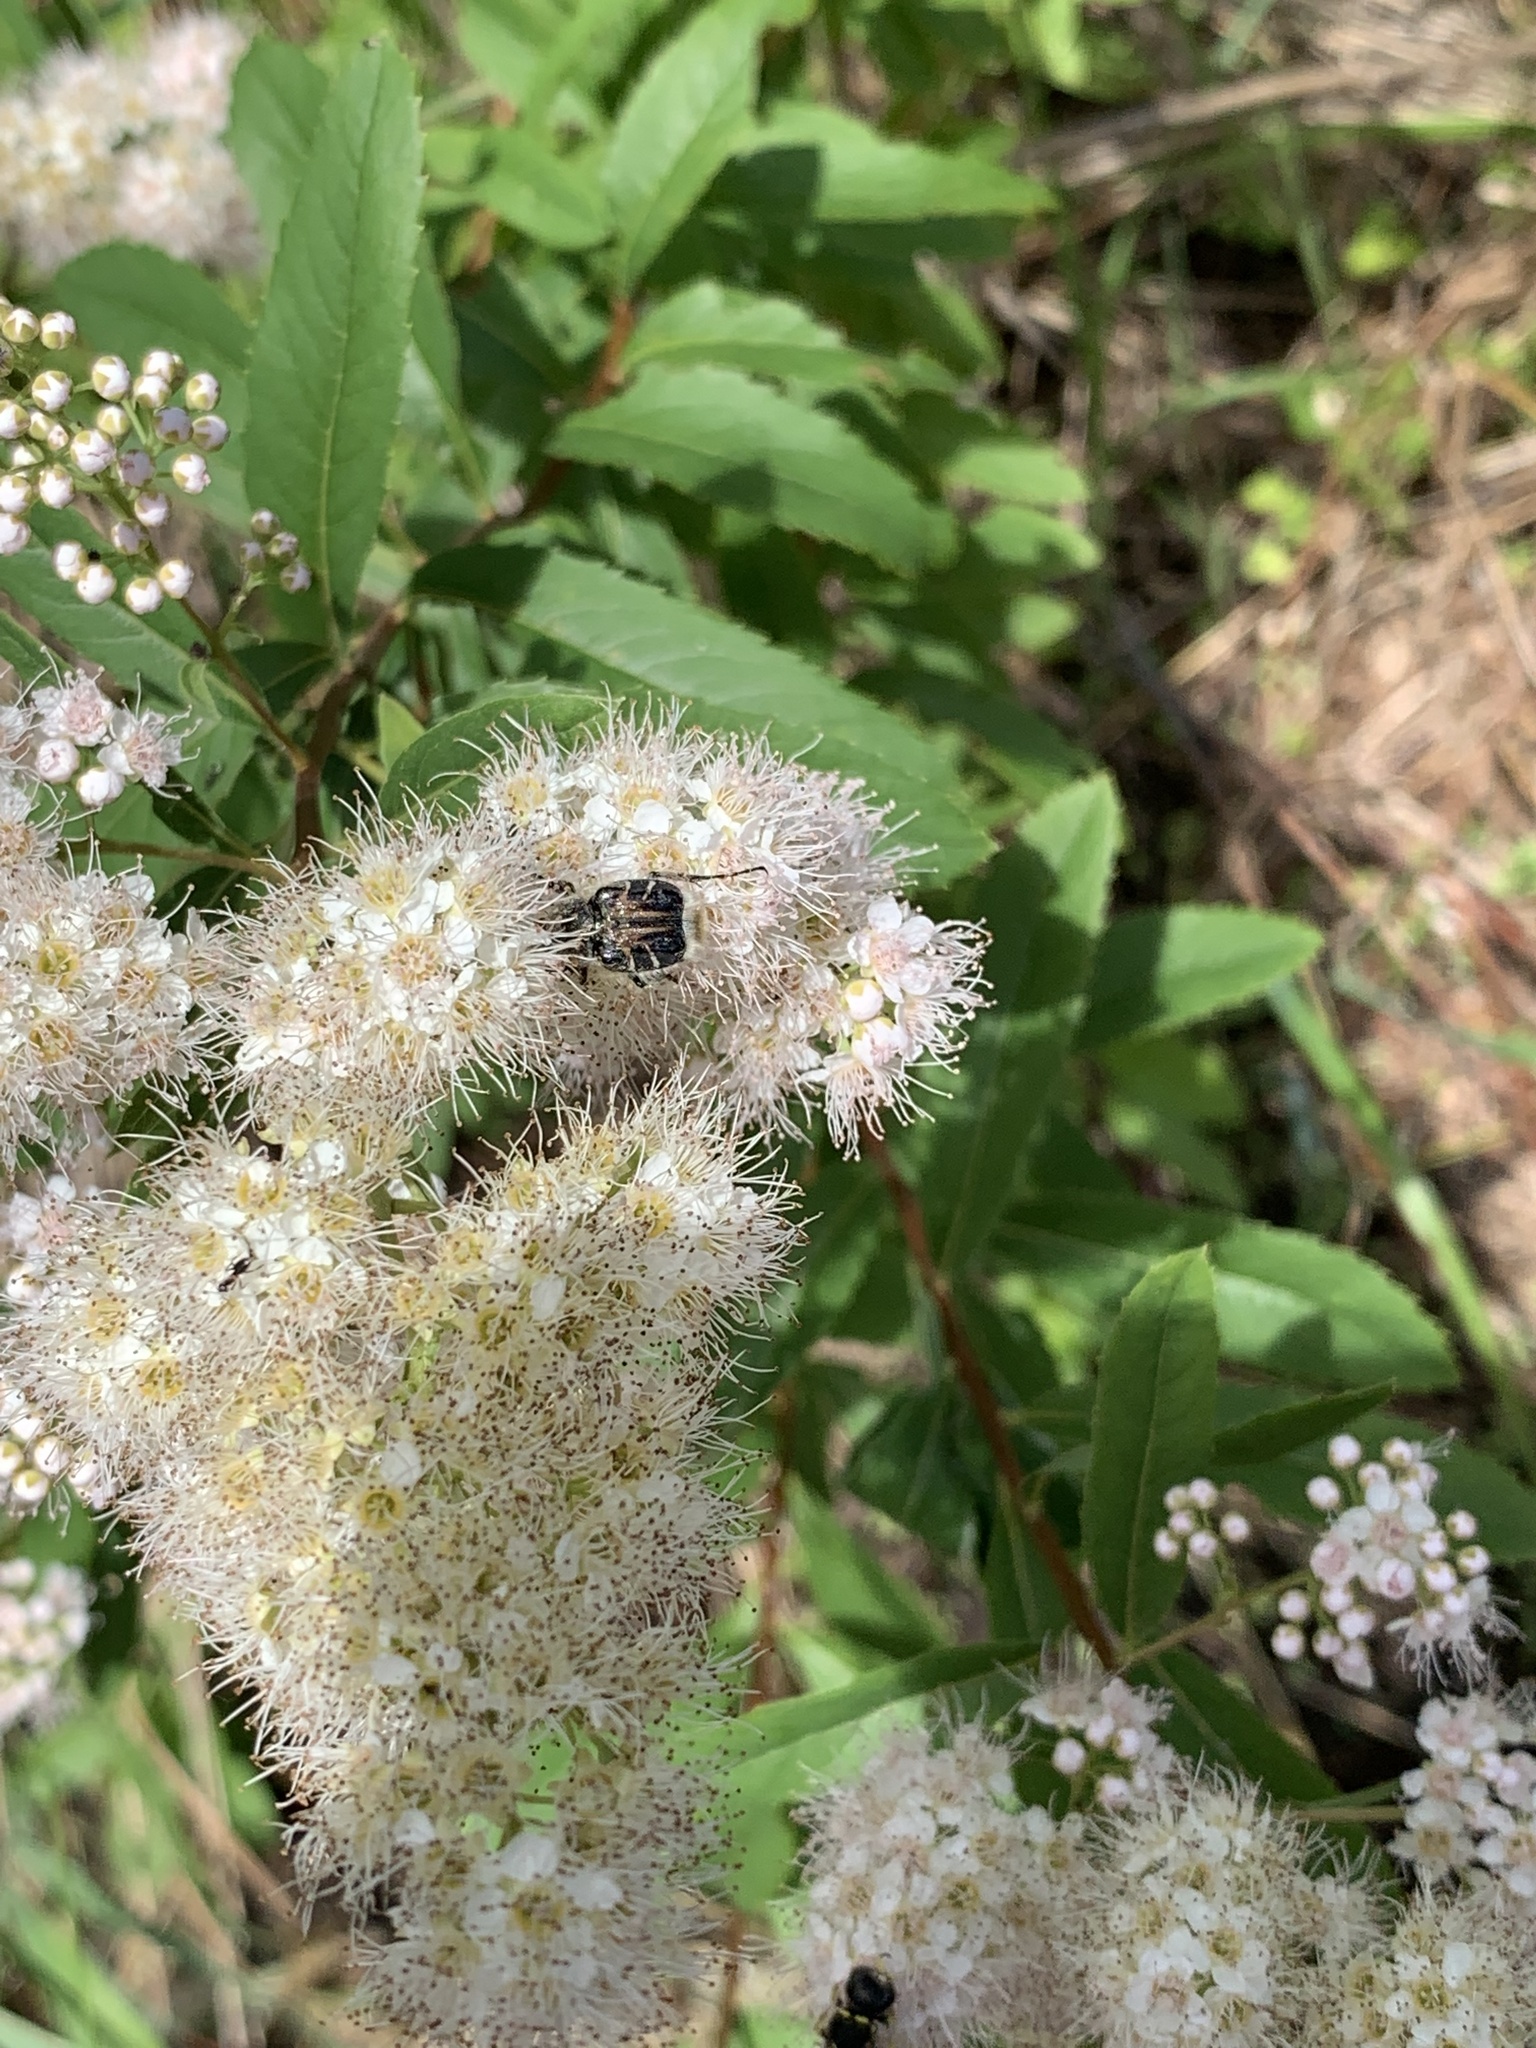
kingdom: Animalia
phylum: Arthropoda
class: Insecta
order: Coleoptera
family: Scarabaeidae
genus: Trichiotinus
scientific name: Trichiotinus assimilis
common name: Bee-mimic beetle
